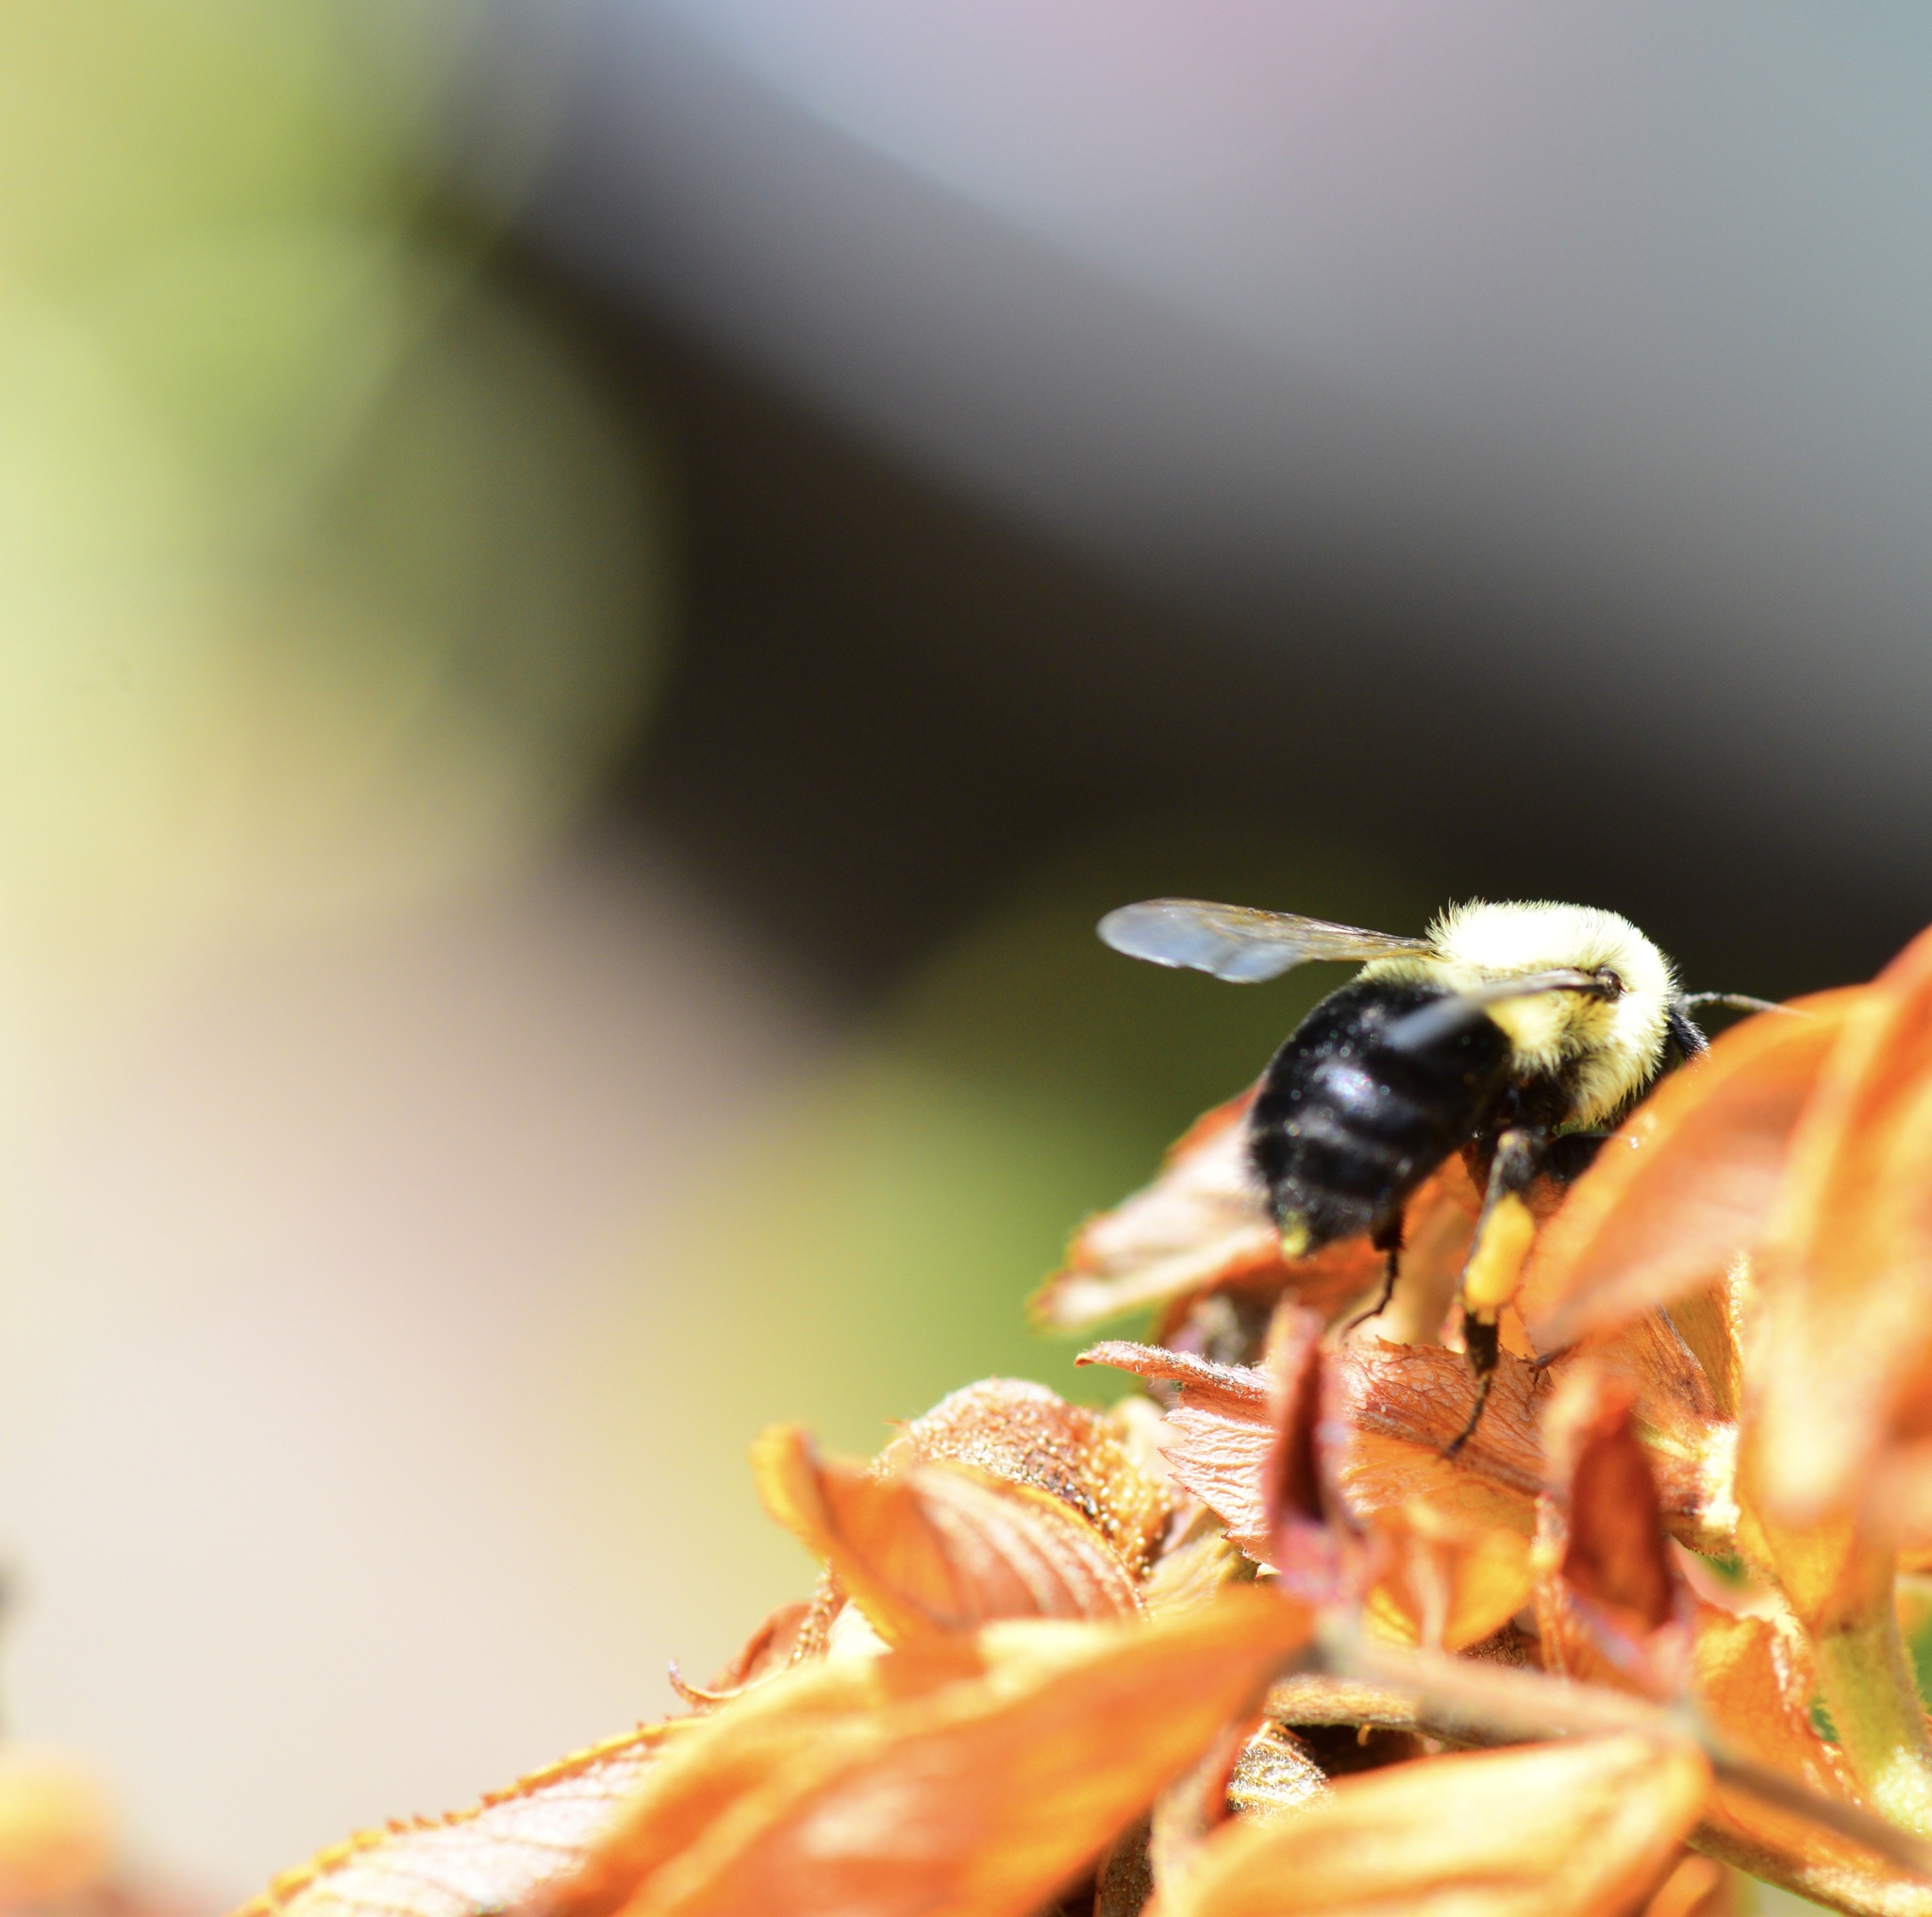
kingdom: Animalia
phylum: Arthropoda
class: Insecta
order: Hymenoptera
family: Apidae
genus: Bombus
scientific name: Bombus impatiens
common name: Common eastern bumble bee
